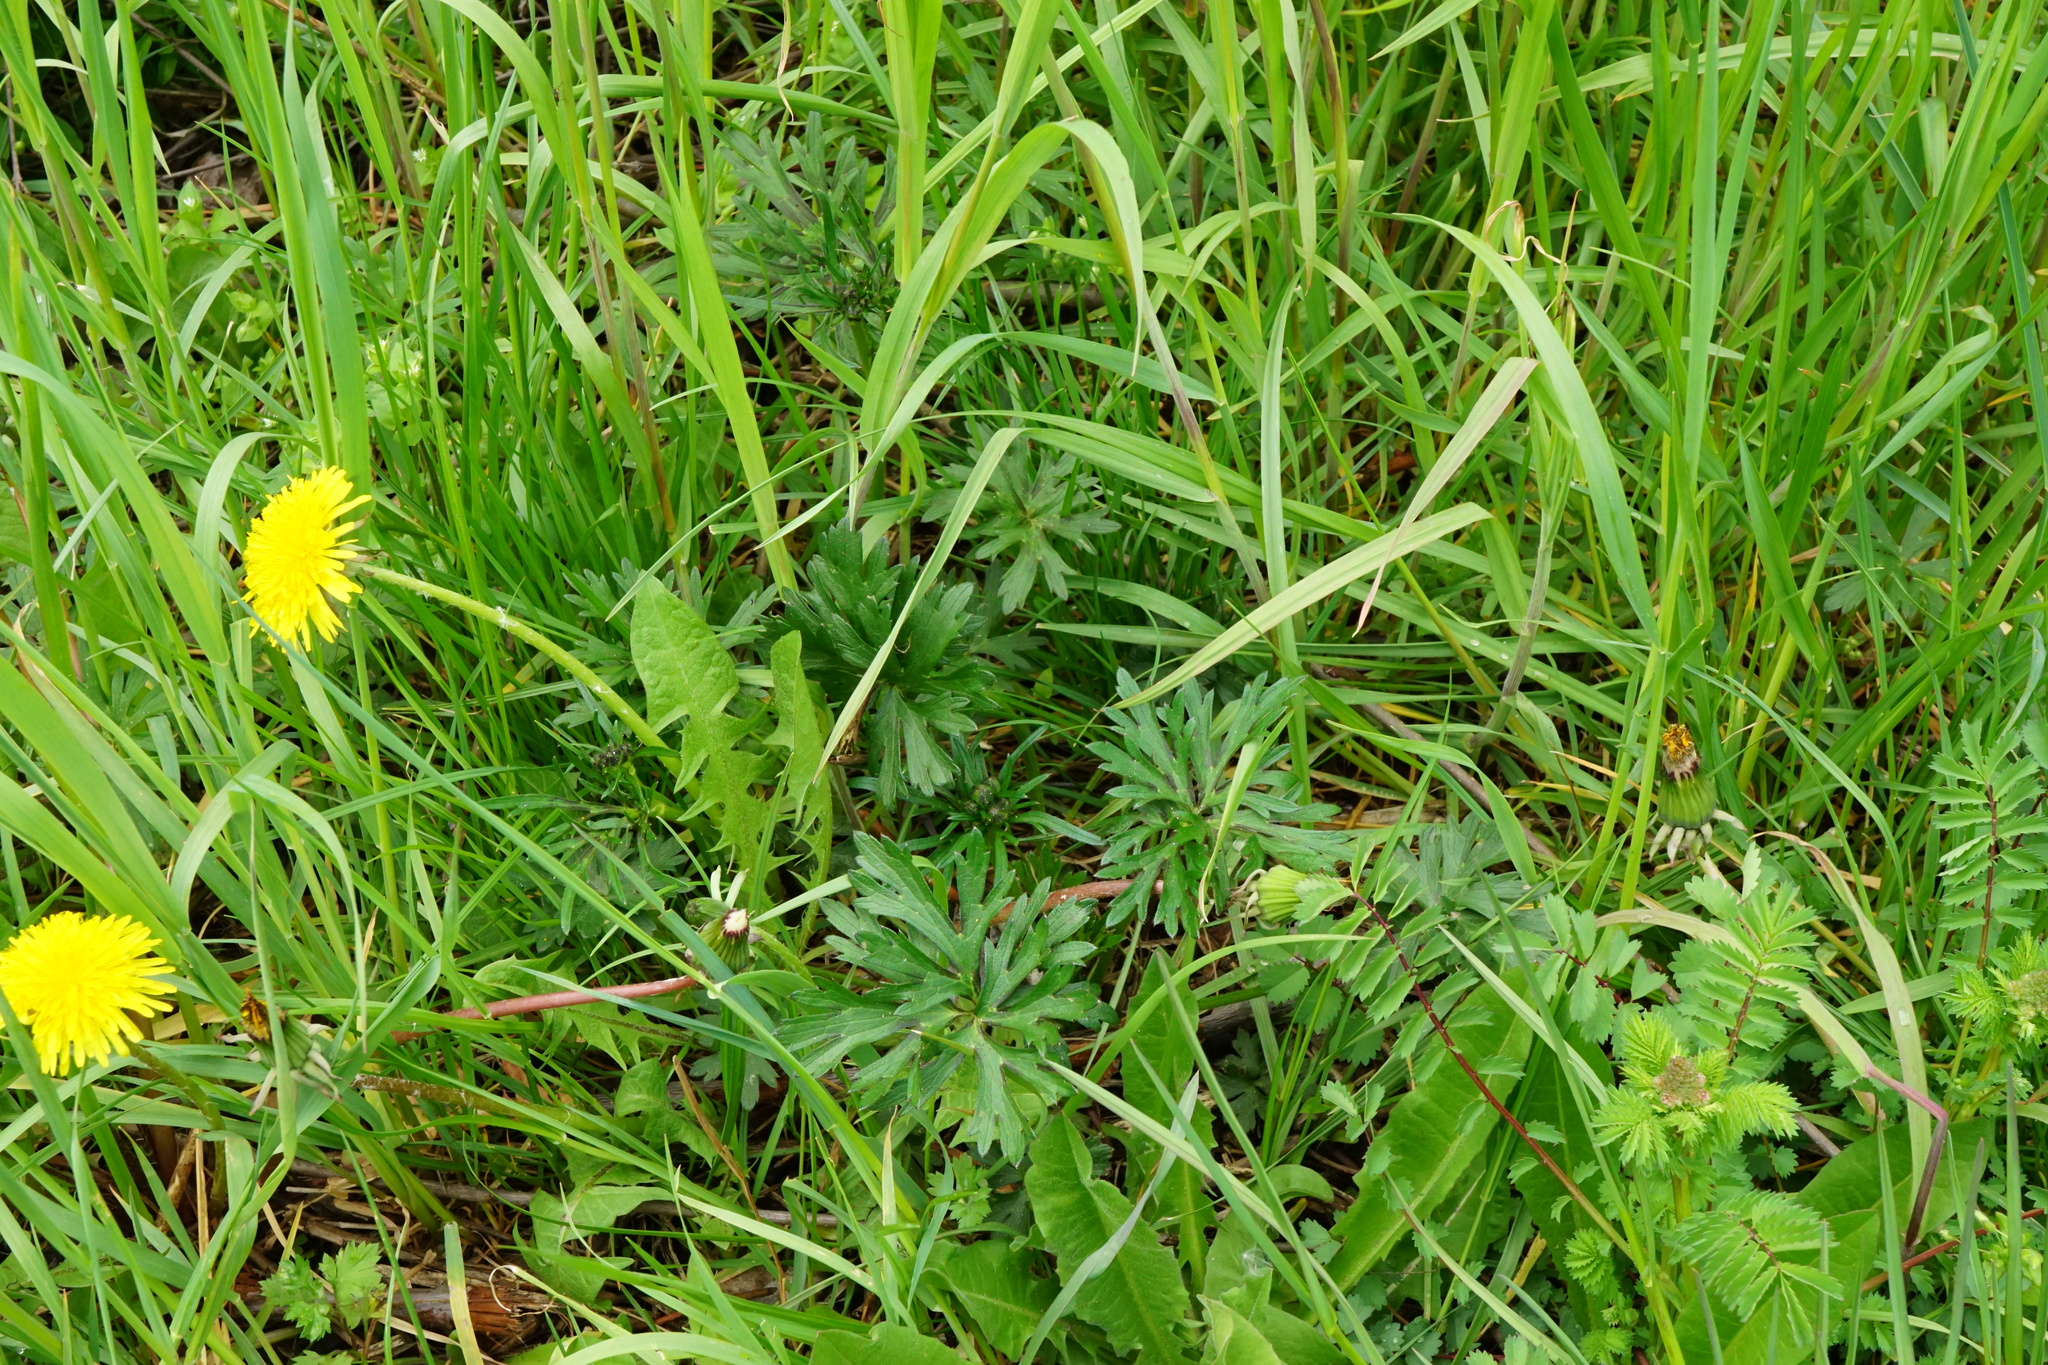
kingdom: Plantae
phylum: Tracheophyta
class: Magnoliopsida
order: Ranunculales
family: Ranunculaceae
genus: Ranunculus
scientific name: Ranunculus acris
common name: Meadow buttercup
